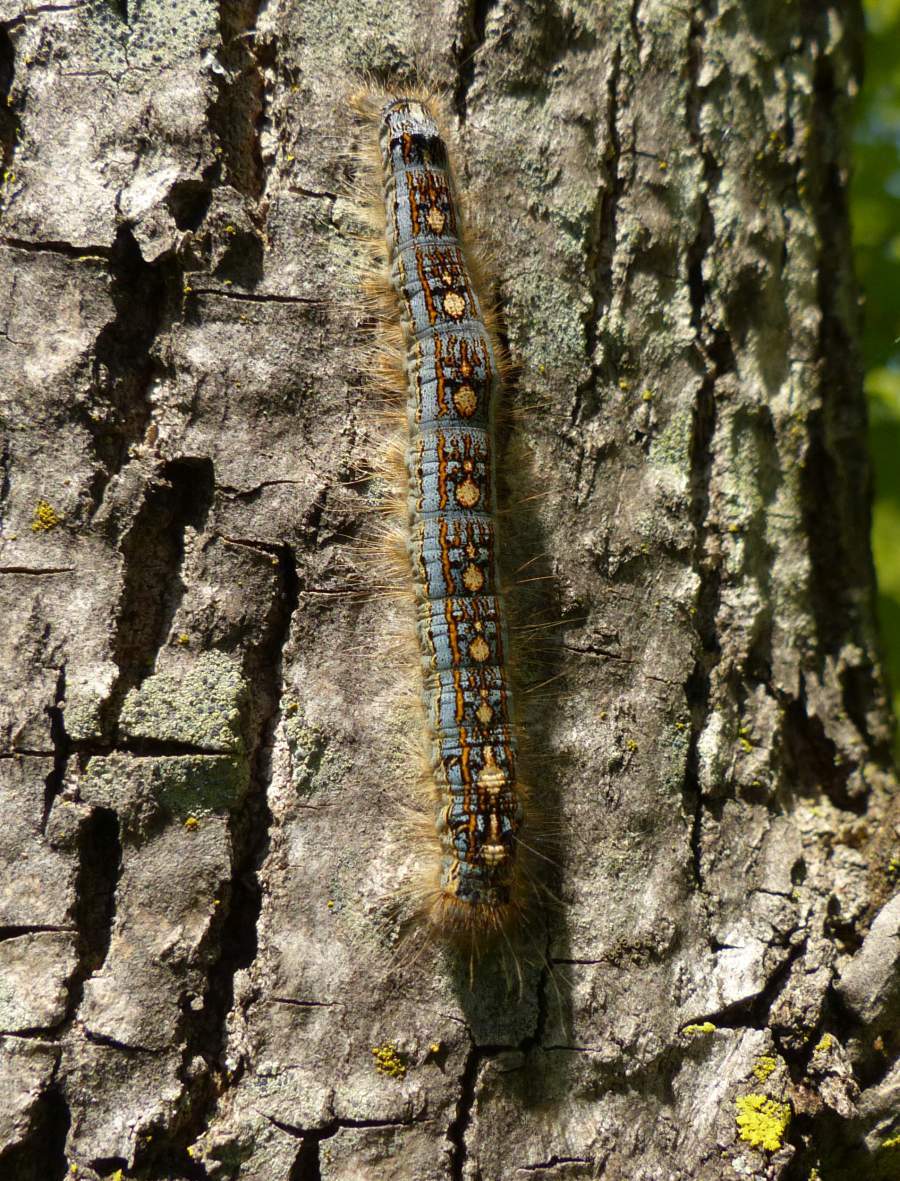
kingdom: Animalia
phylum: Arthropoda
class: Insecta
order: Lepidoptera
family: Lasiocampidae
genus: Malacosoma
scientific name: Malacosoma disstria
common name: Forest tent caterpillar
